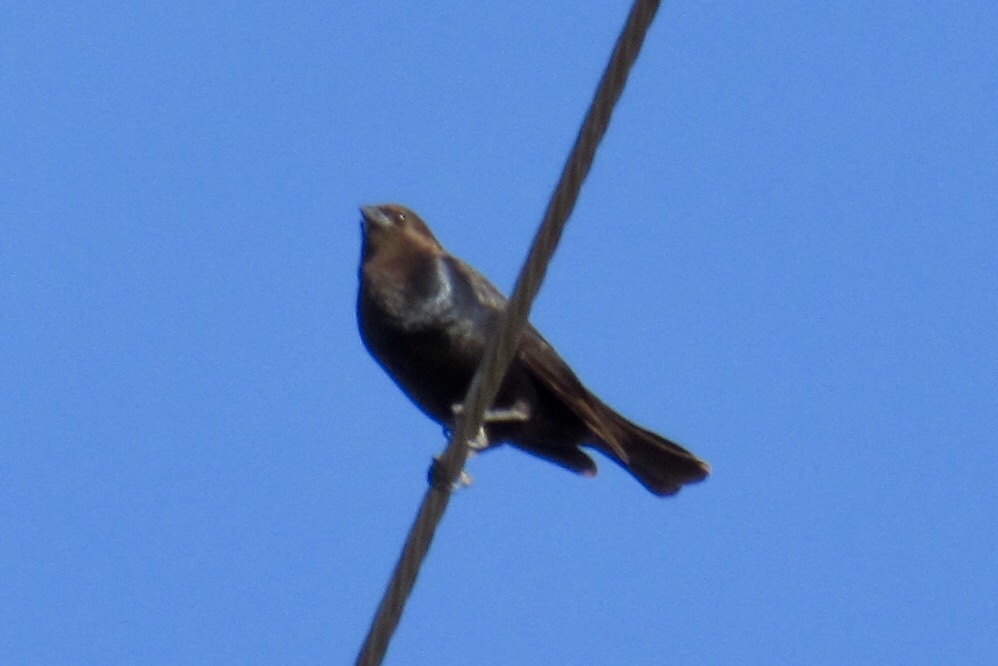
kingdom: Animalia
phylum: Chordata
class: Aves
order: Passeriformes
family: Icteridae
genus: Molothrus
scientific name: Molothrus ater
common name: Brown-headed cowbird
